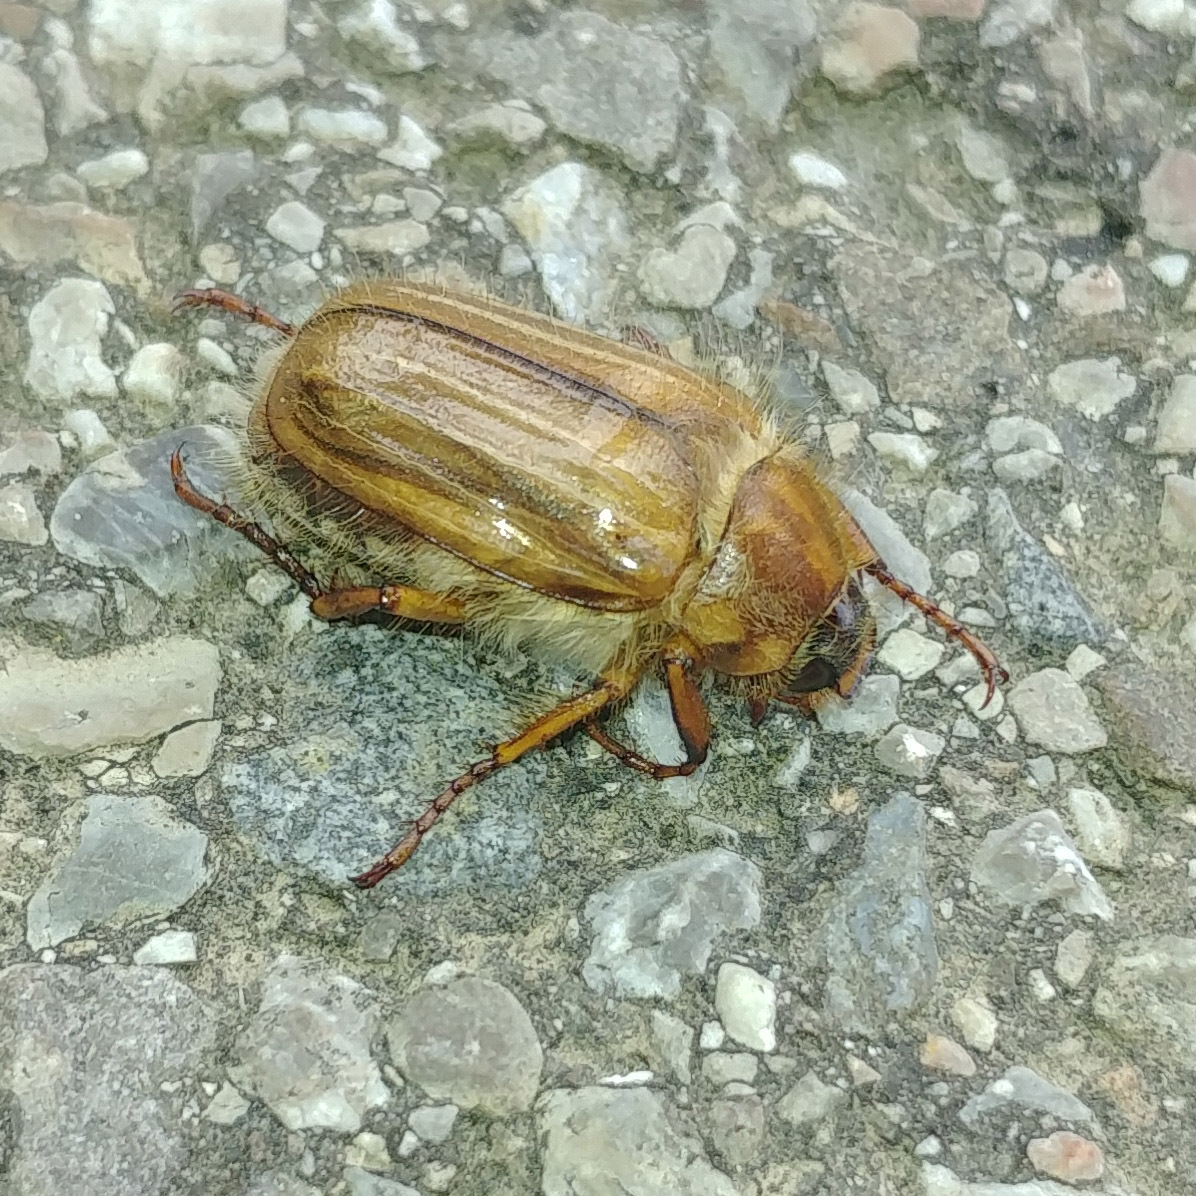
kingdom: Animalia
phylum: Arthropoda
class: Insecta
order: Coleoptera
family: Scarabaeidae
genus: Amphimallon
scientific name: Amphimallon solstitiale
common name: Summer chafer
